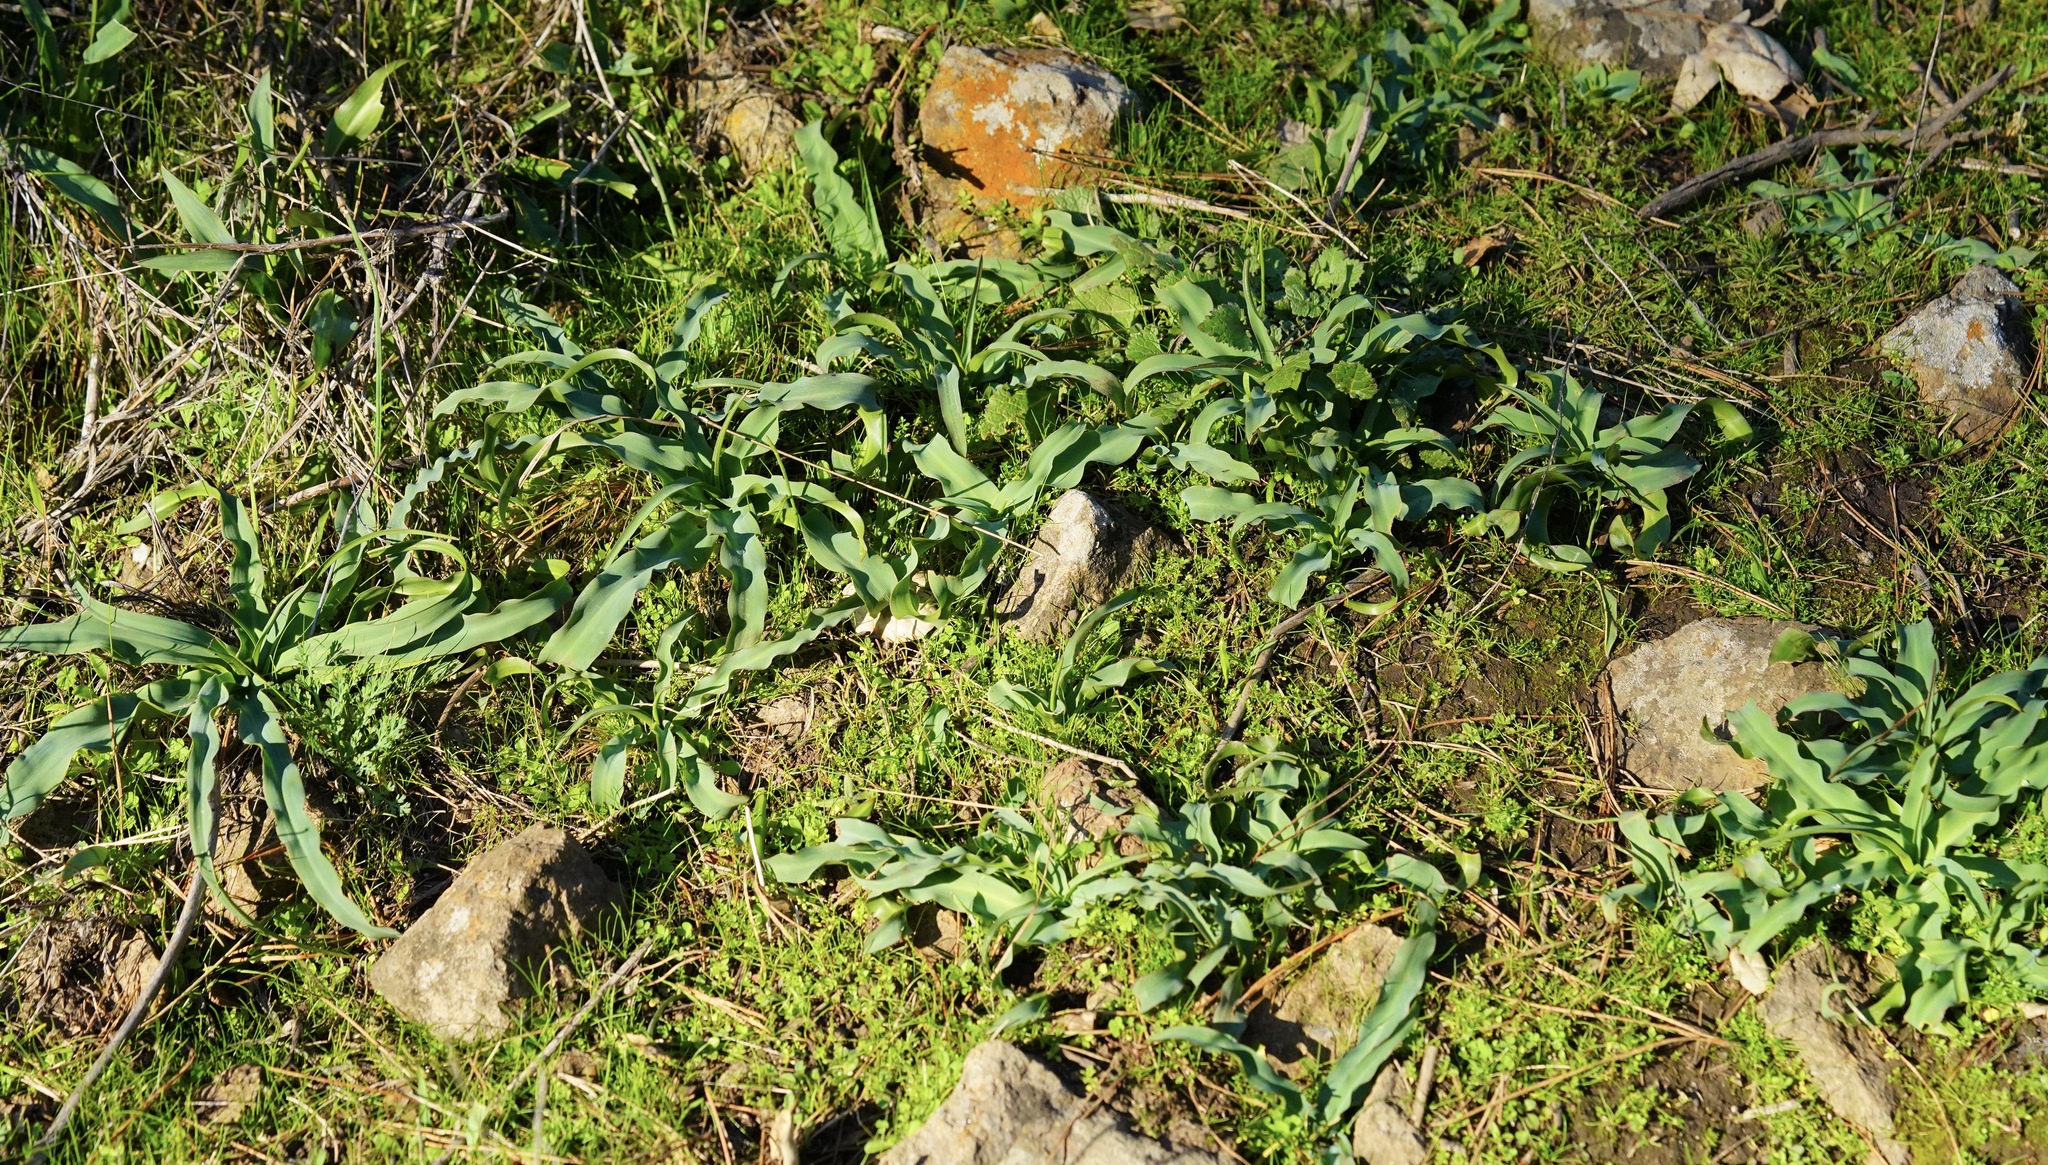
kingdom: Plantae
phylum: Tracheophyta
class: Liliopsida
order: Asparagales
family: Asparagaceae
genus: Chlorogalum
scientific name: Chlorogalum pomeridianum
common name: Amole
